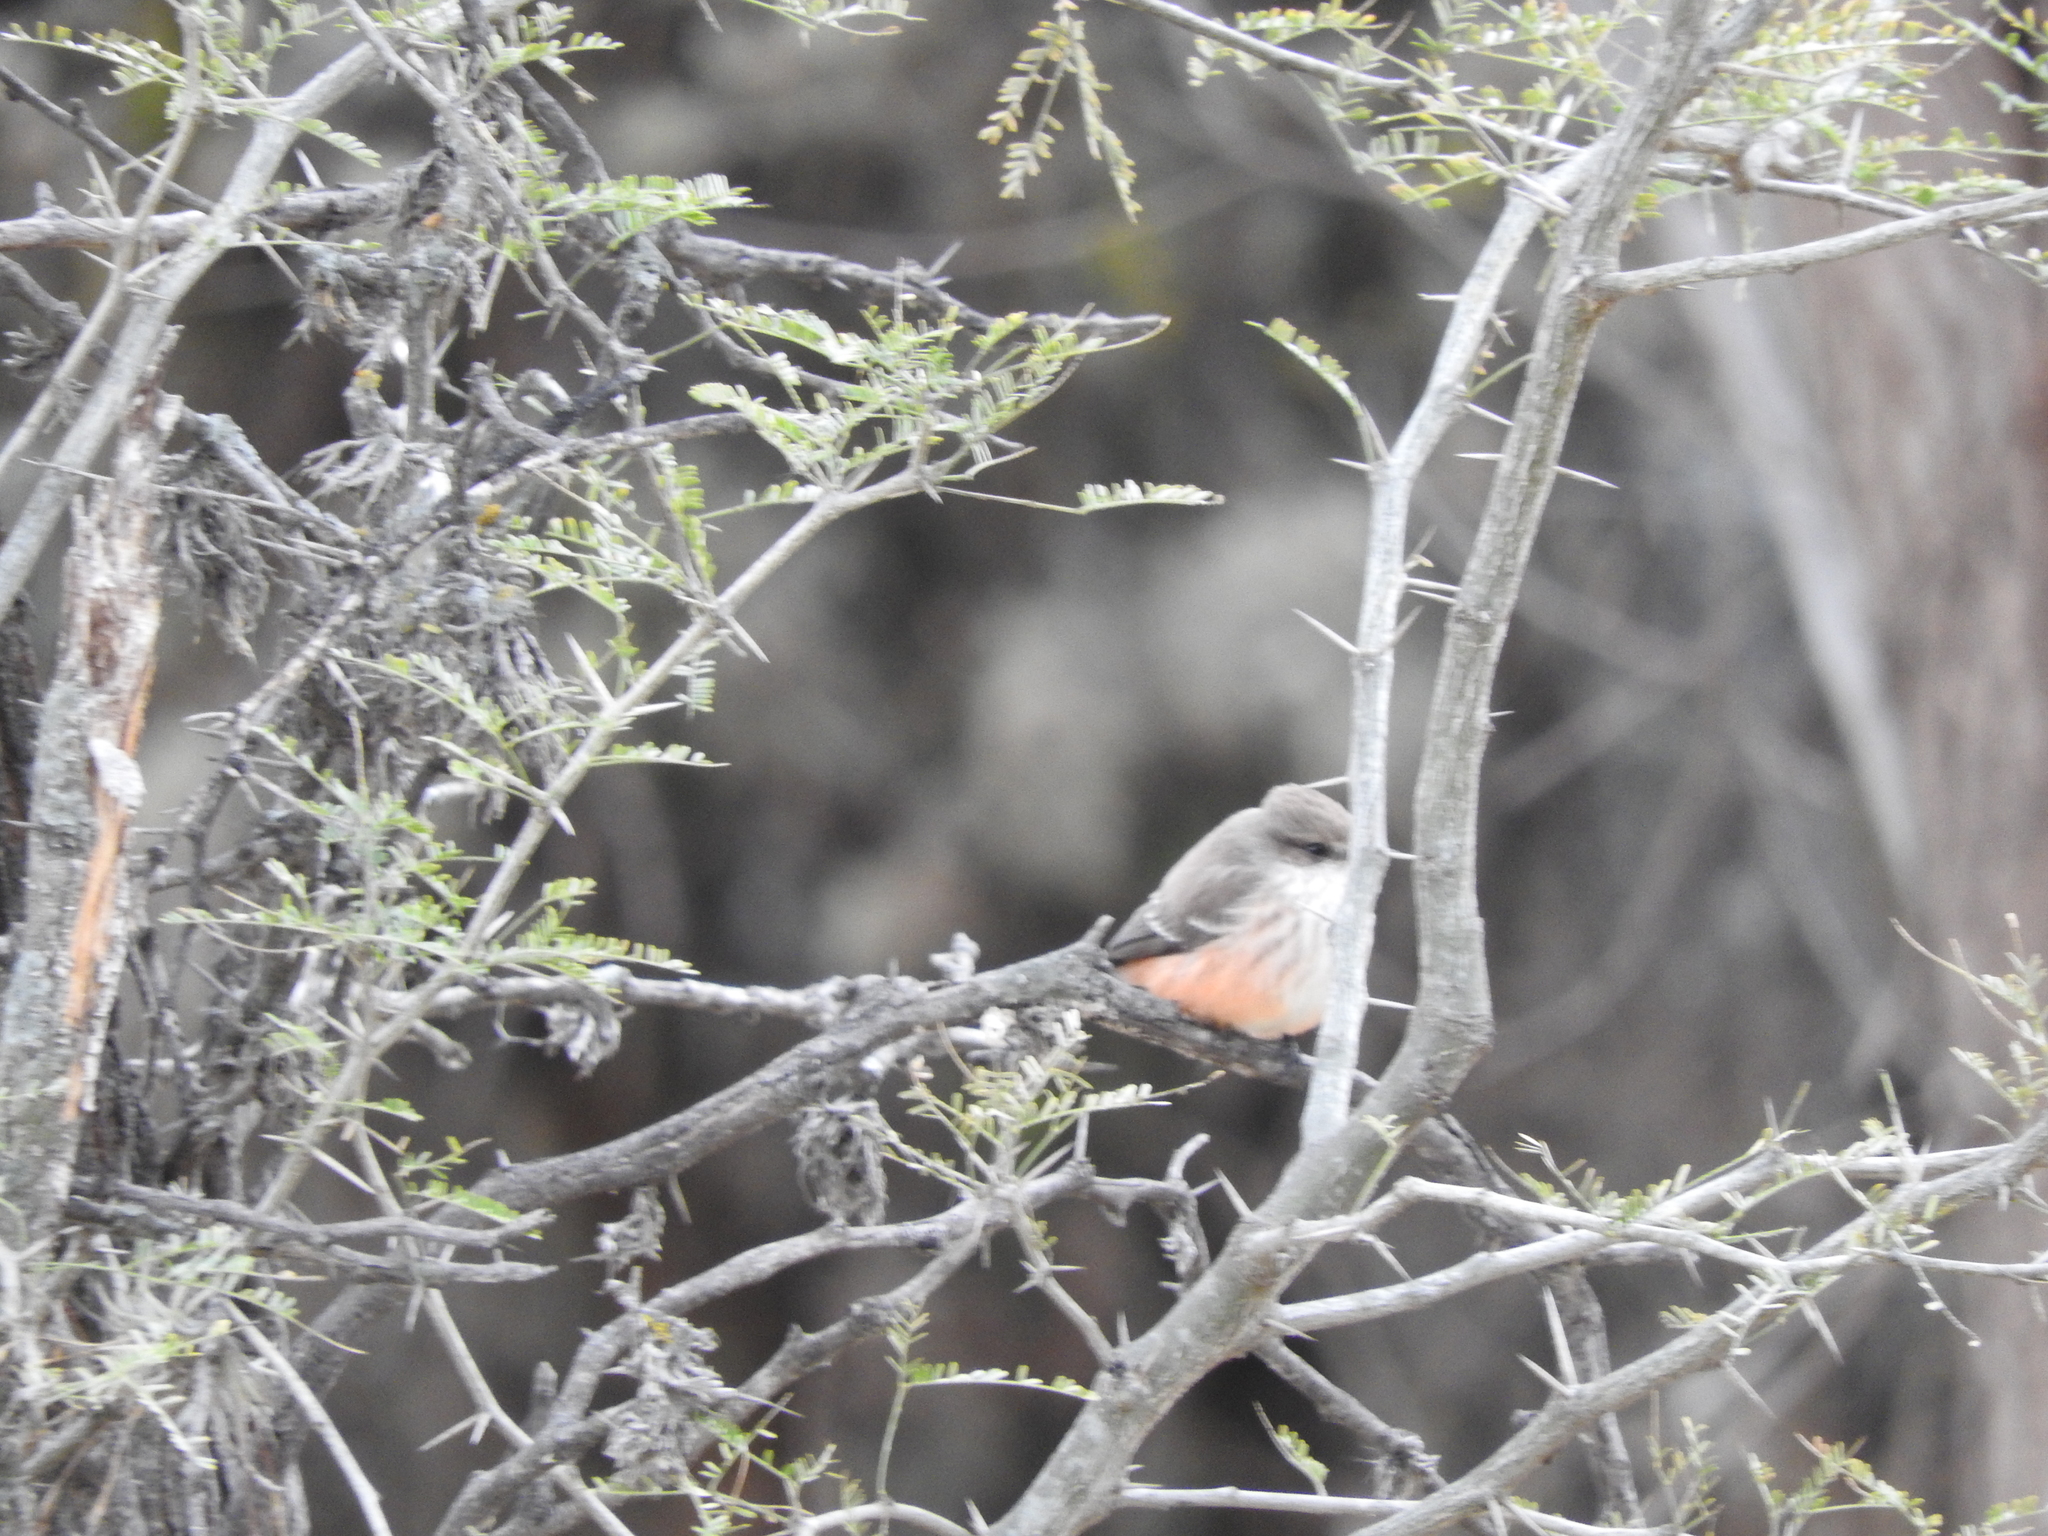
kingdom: Animalia
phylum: Chordata
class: Aves
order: Passeriformes
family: Tyrannidae
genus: Pyrocephalus
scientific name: Pyrocephalus rubinus
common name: Vermilion flycatcher
